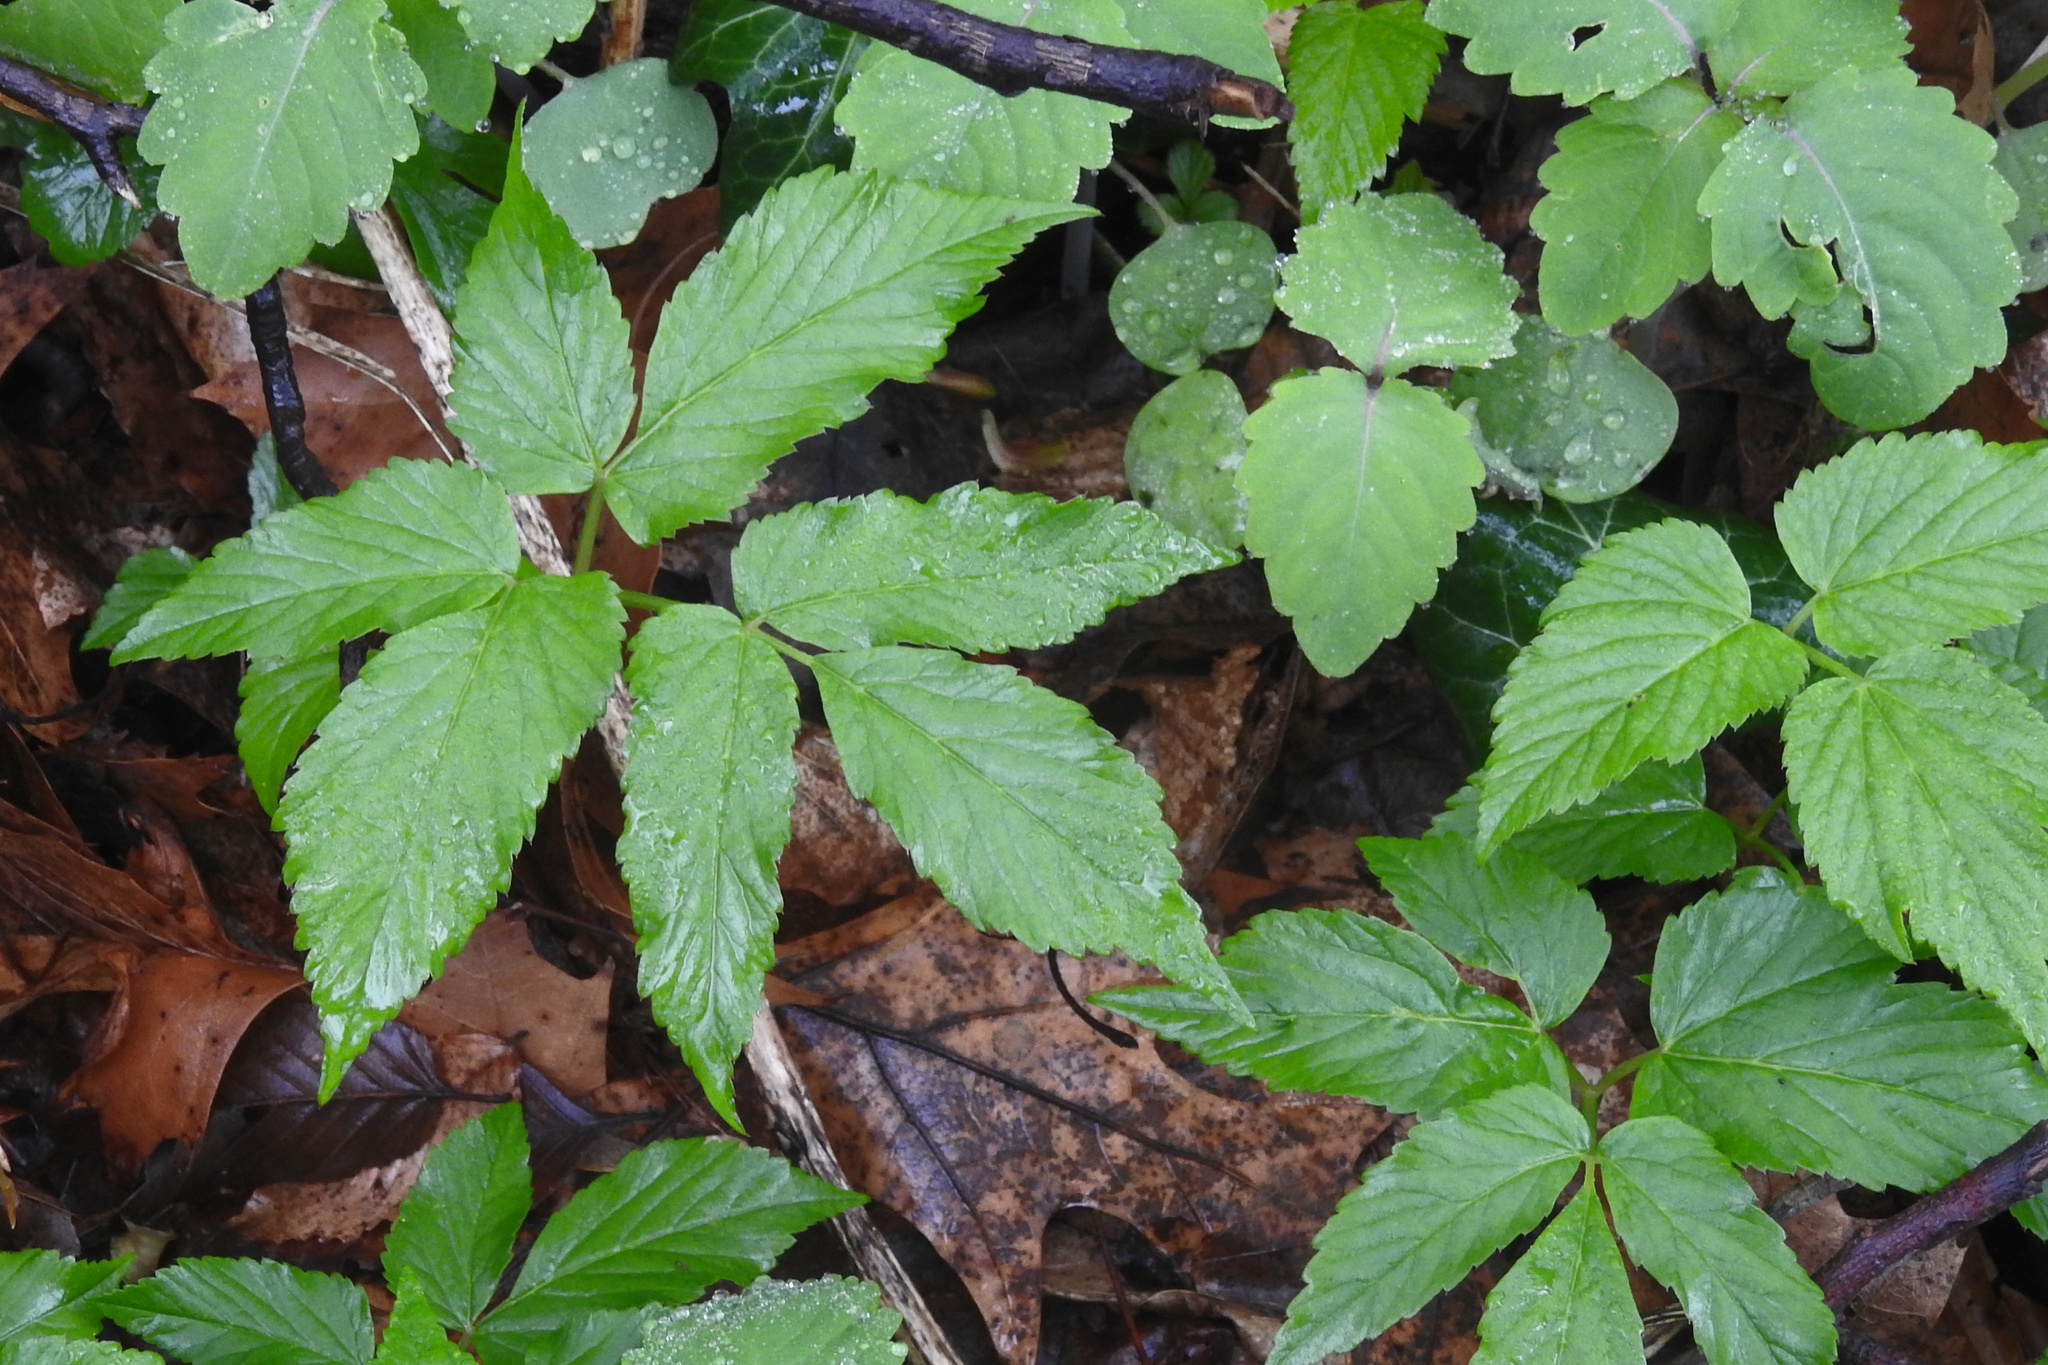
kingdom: Plantae
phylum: Tracheophyta
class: Magnoliopsida
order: Apiales
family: Apiaceae
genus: Aegopodium
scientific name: Aegopodium podagraria
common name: Ground-elder
